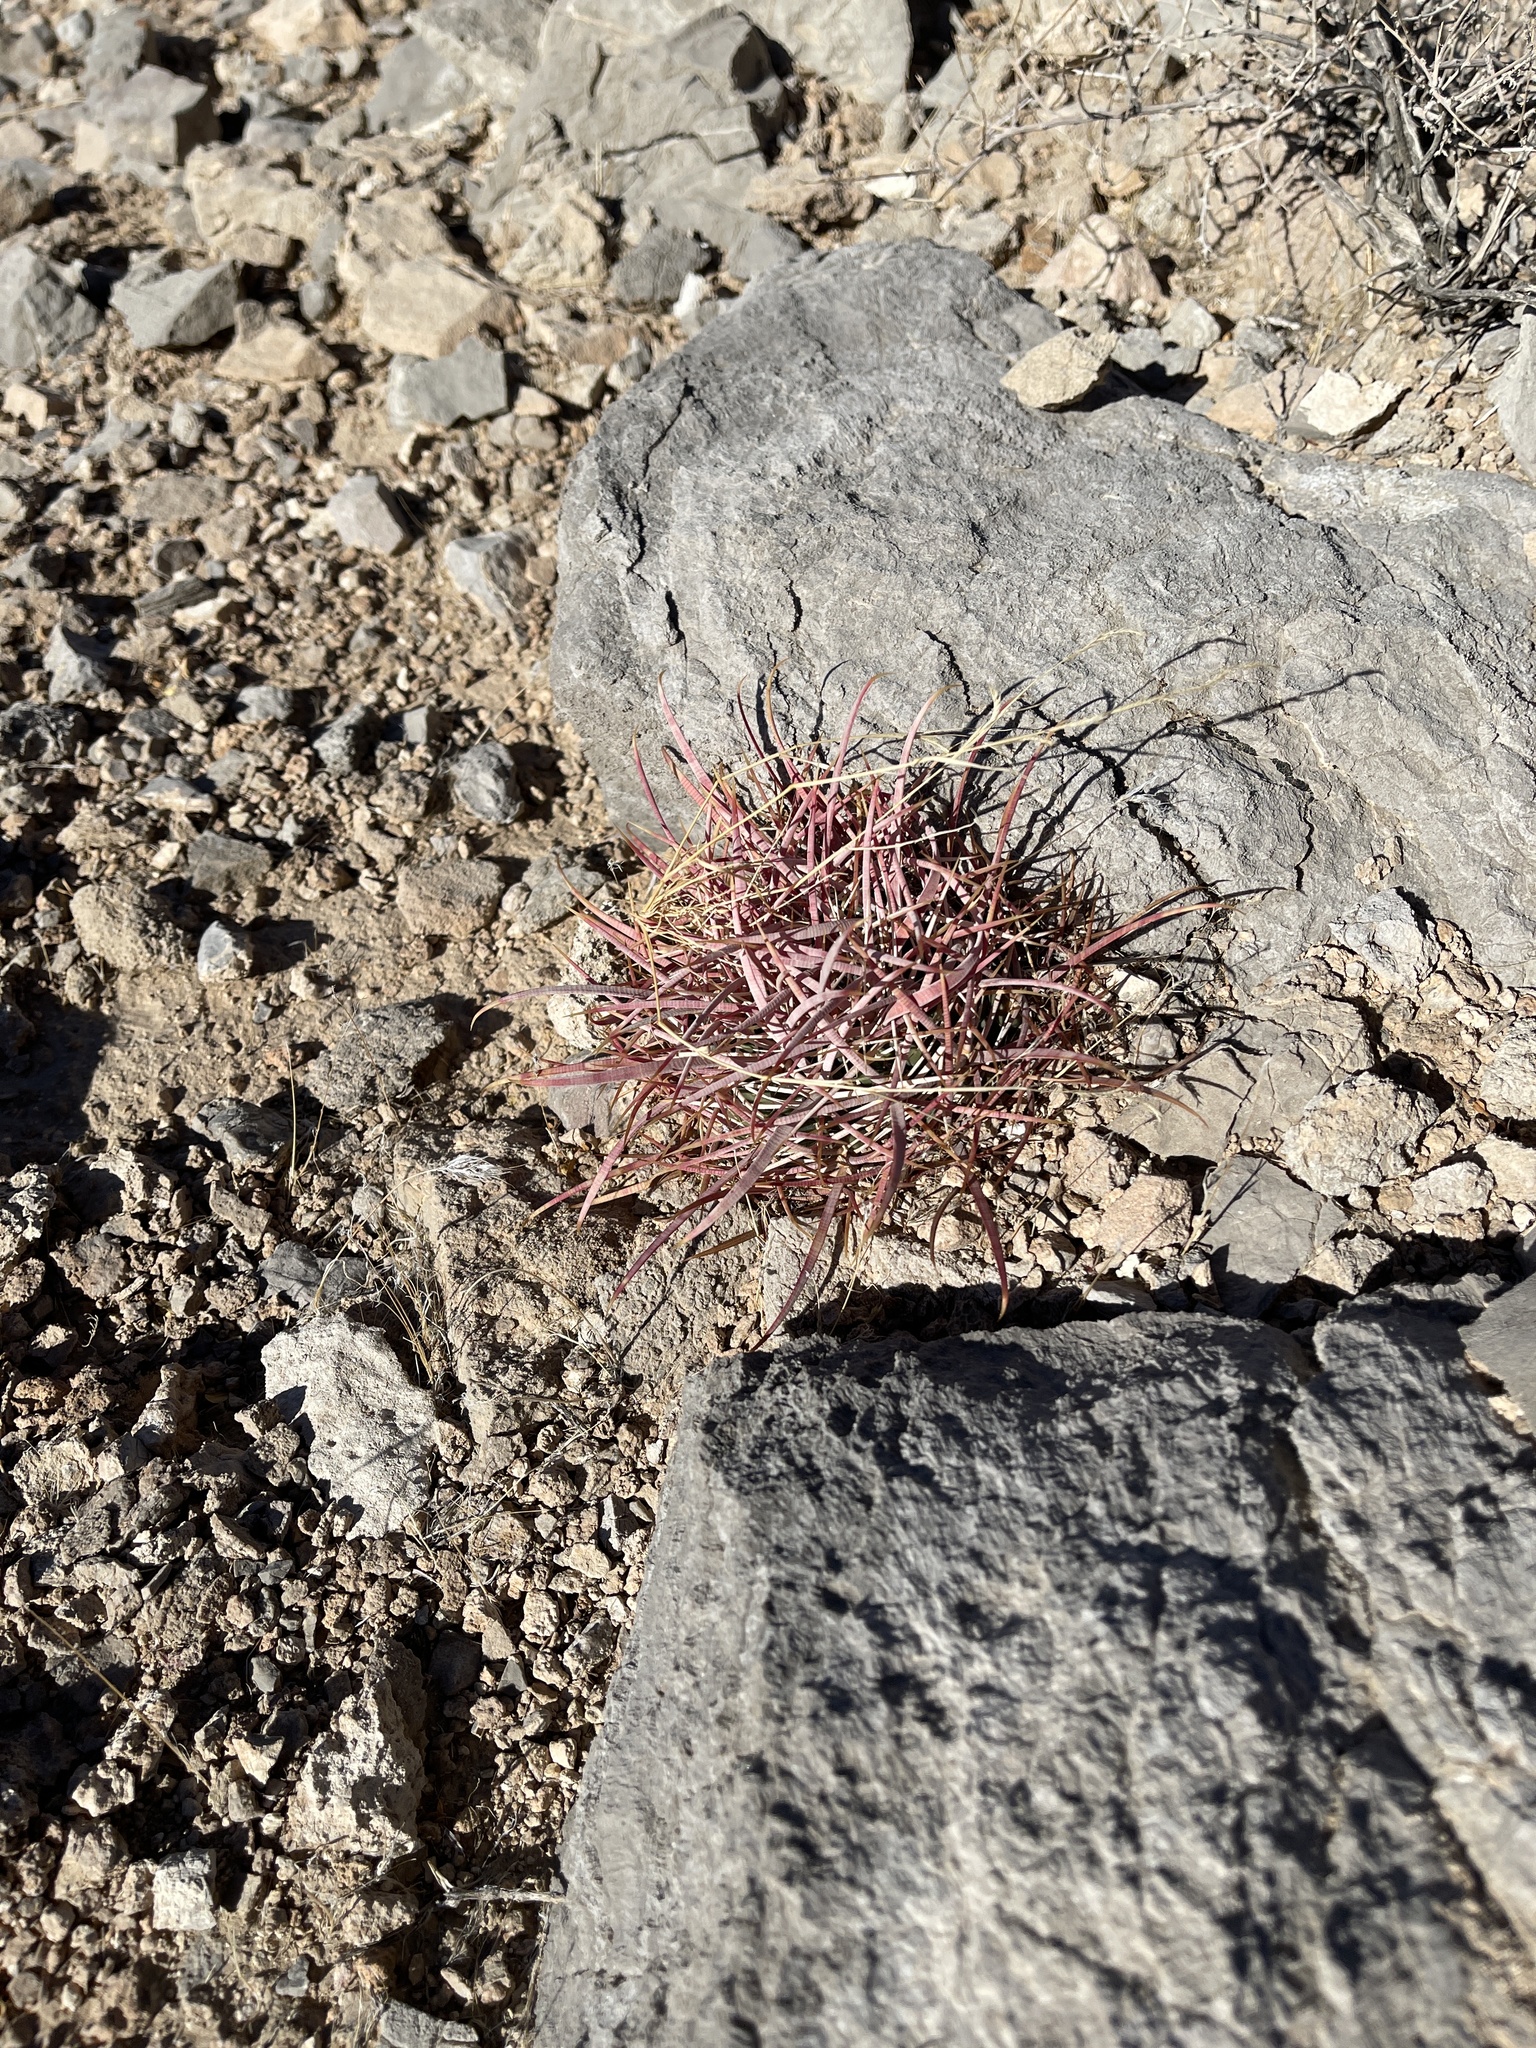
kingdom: Plantae
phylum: Tracheophyta
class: Magnoliopsida
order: Caryophyllales
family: Cactaceae
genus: Ferocactus
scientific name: Ferocactus cylindraceus
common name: California barrel cactus
